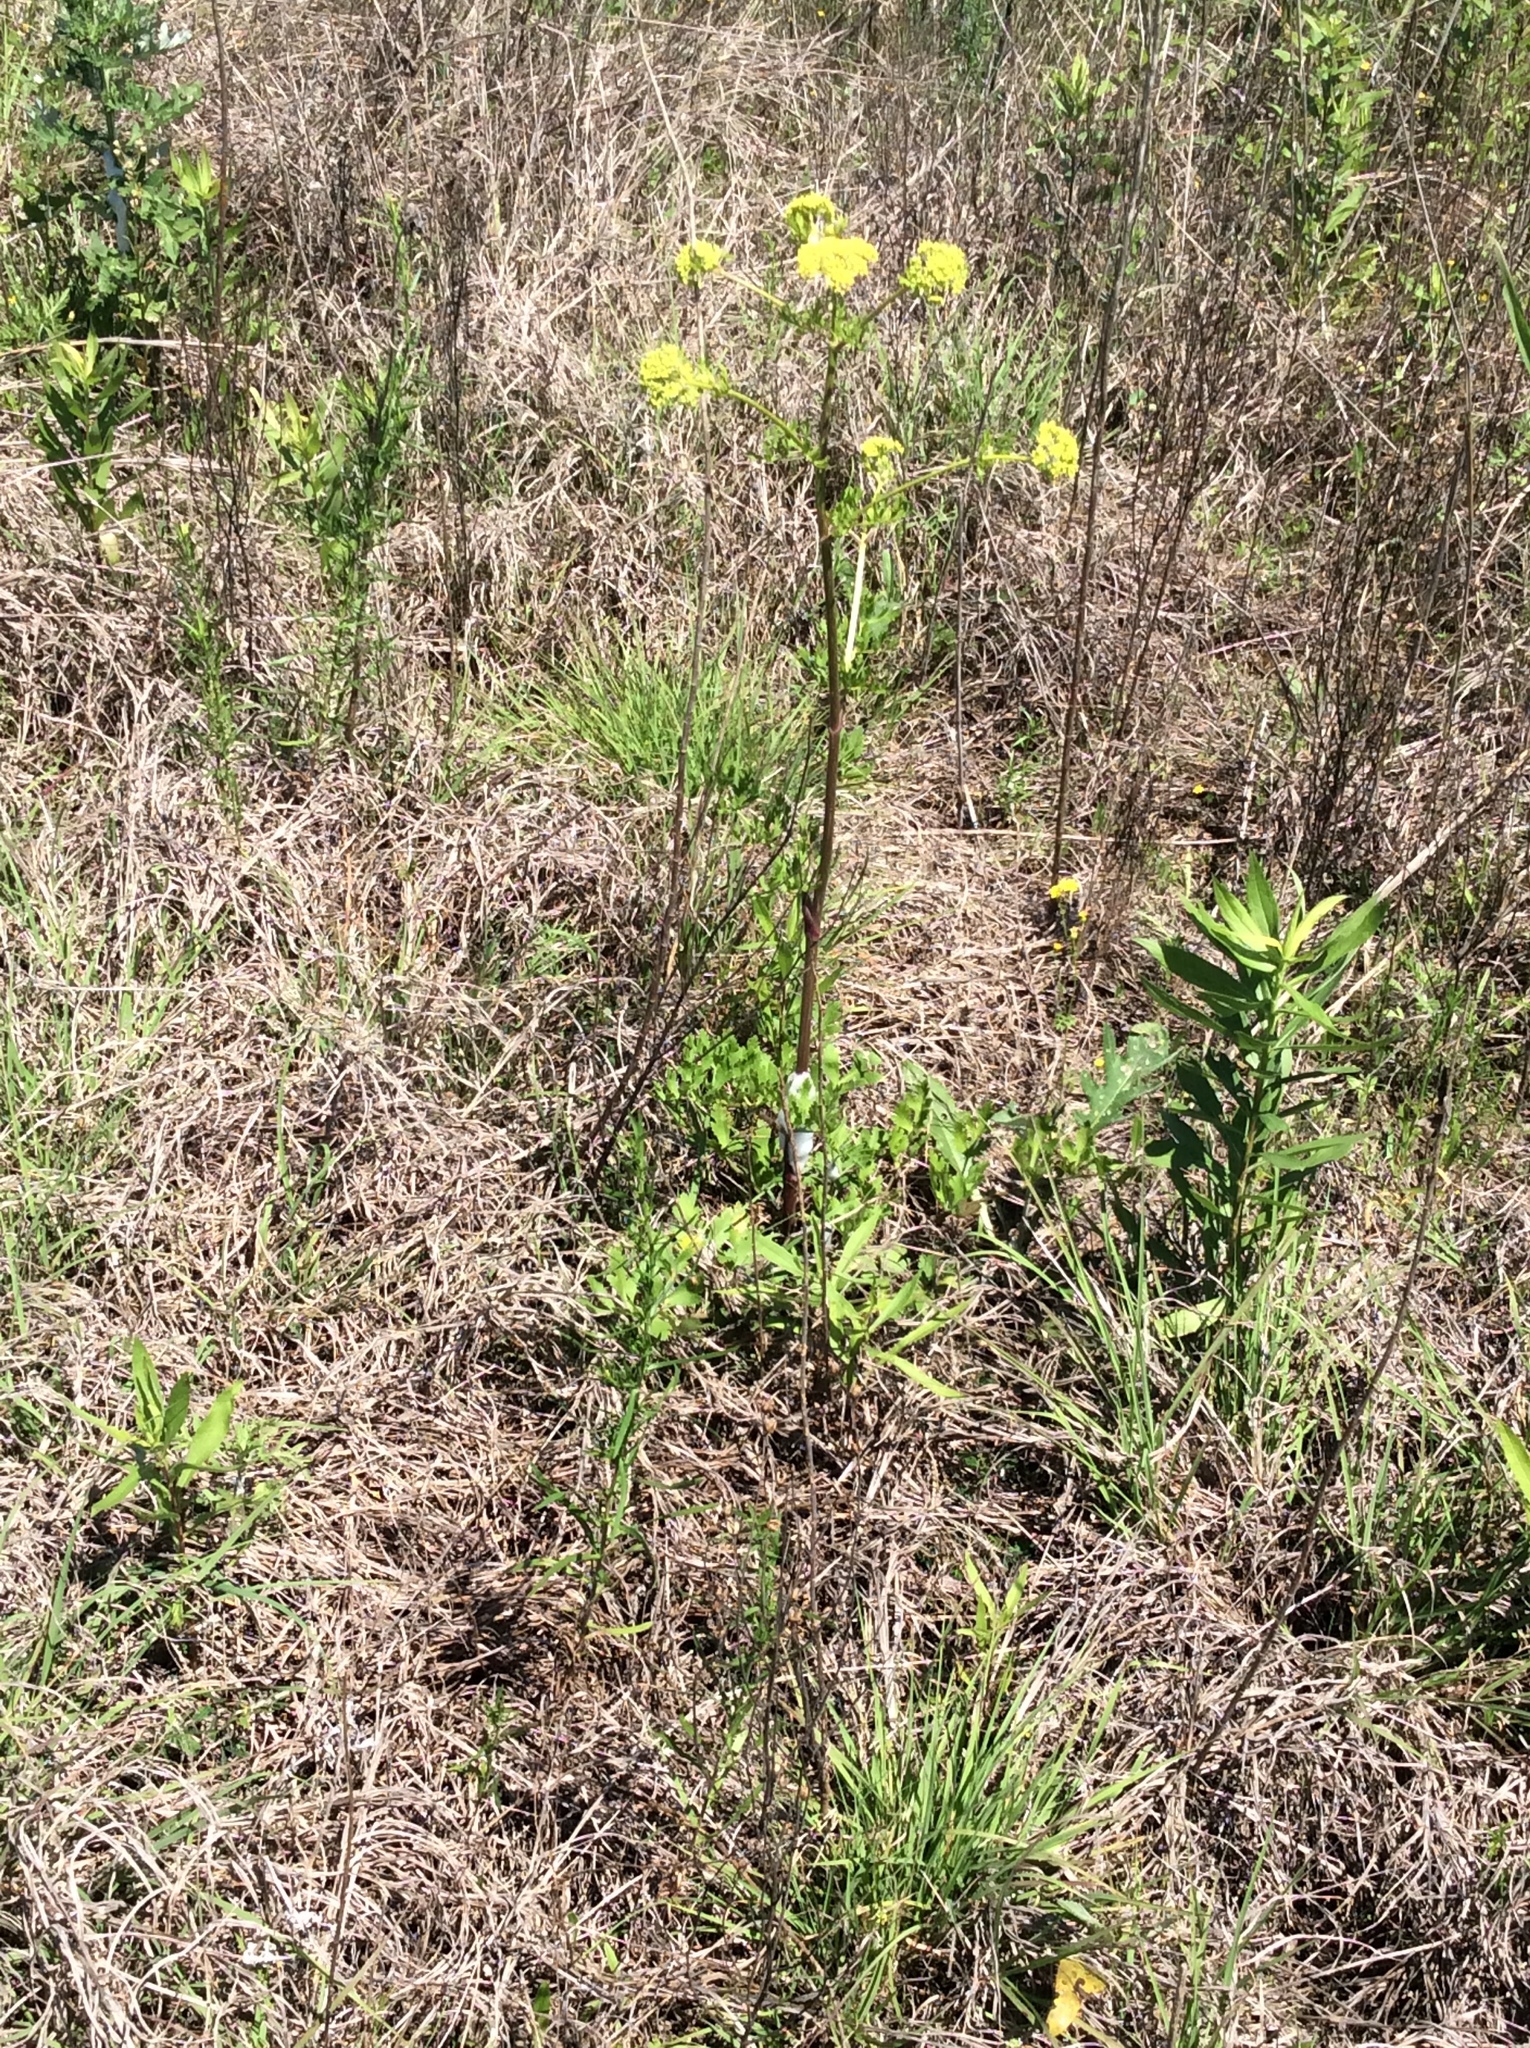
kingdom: Plantae
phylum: Tracheophyta
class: Magnoliopsida
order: Apiales
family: Apiaceae
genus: Polytaenia
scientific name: Polytaenia texana
